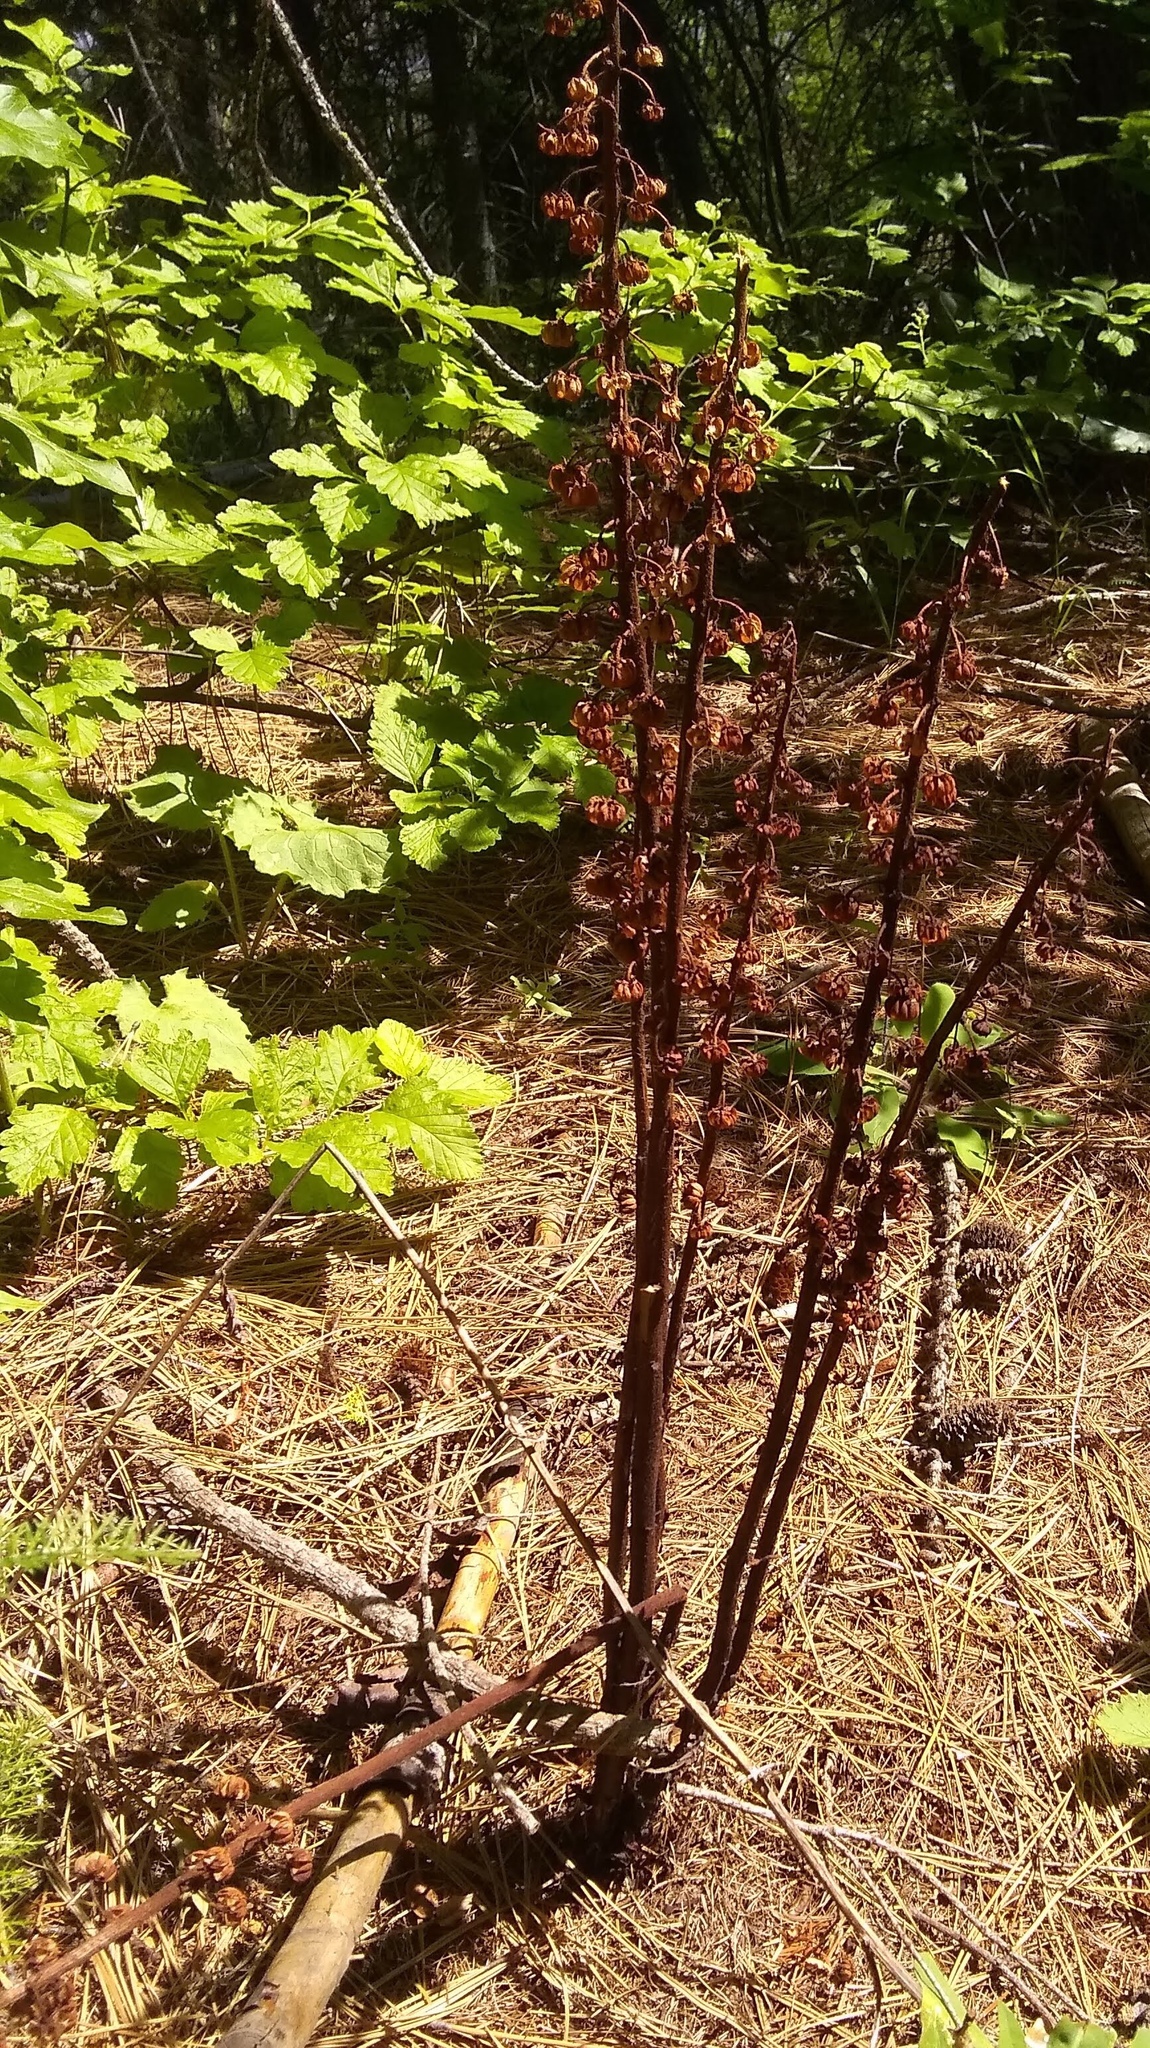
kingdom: Plantae
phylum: Tracheophyta
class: Magnoliopsida
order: Ericales
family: Ericaceae
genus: Pterospora
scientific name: Pterospora andromedea
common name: Giant bird's-nest
